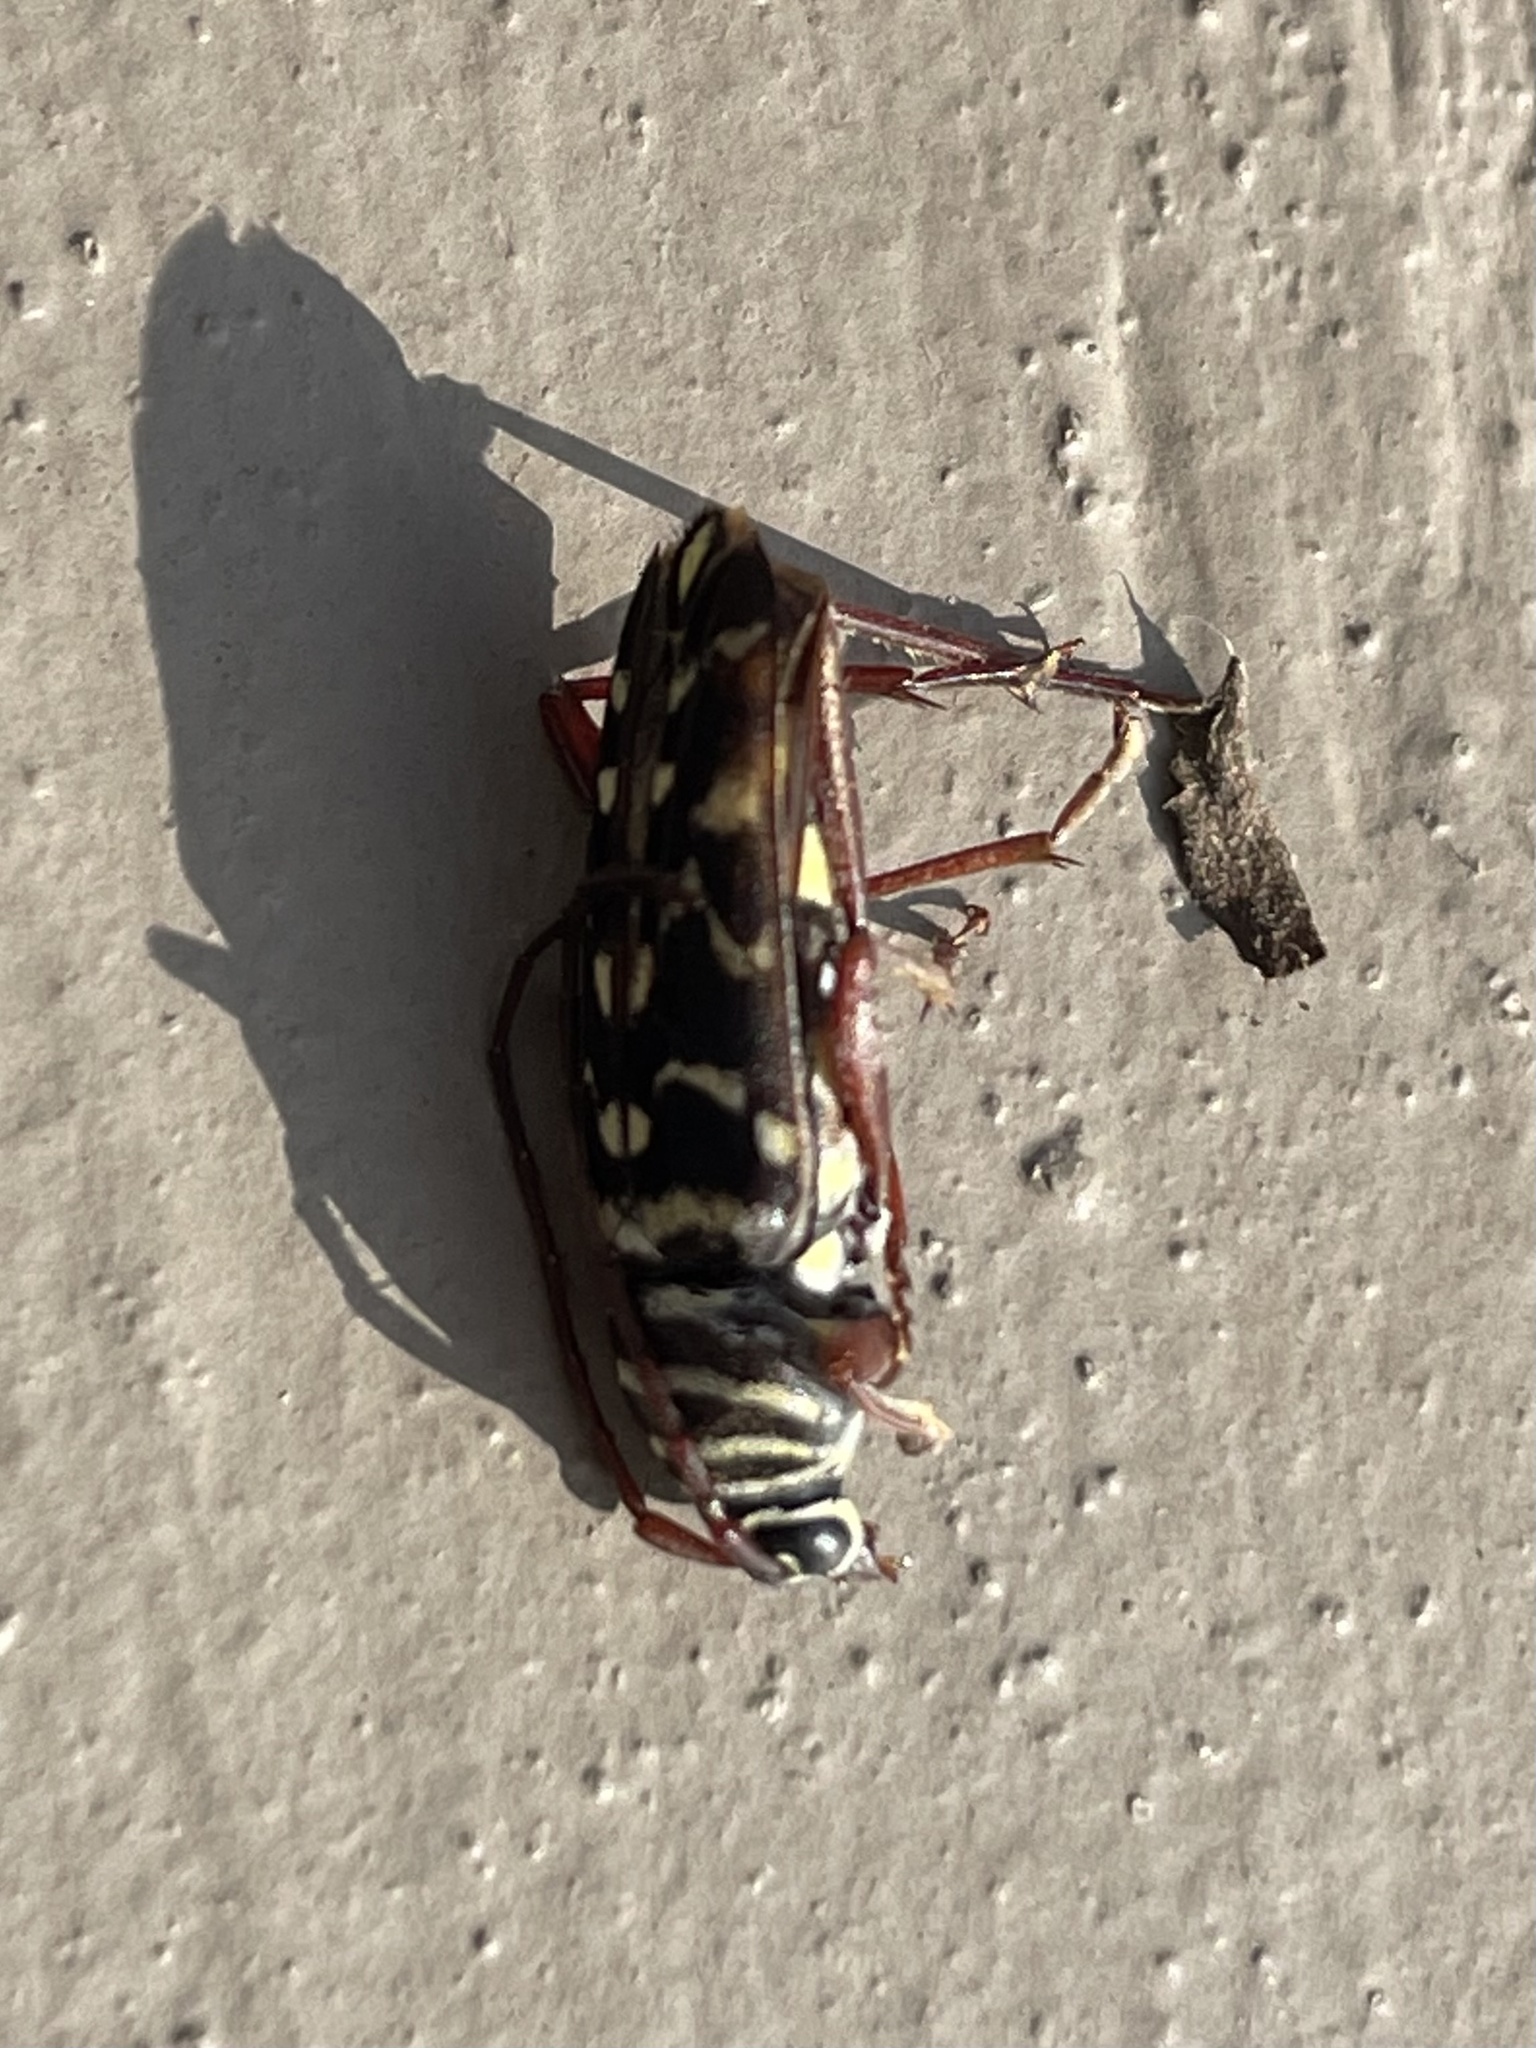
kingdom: Animalia
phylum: Arthropoda
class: Insecta
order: Coleoptera
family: Cerambycidae
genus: Placosternus
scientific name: Placosternus difficilis
